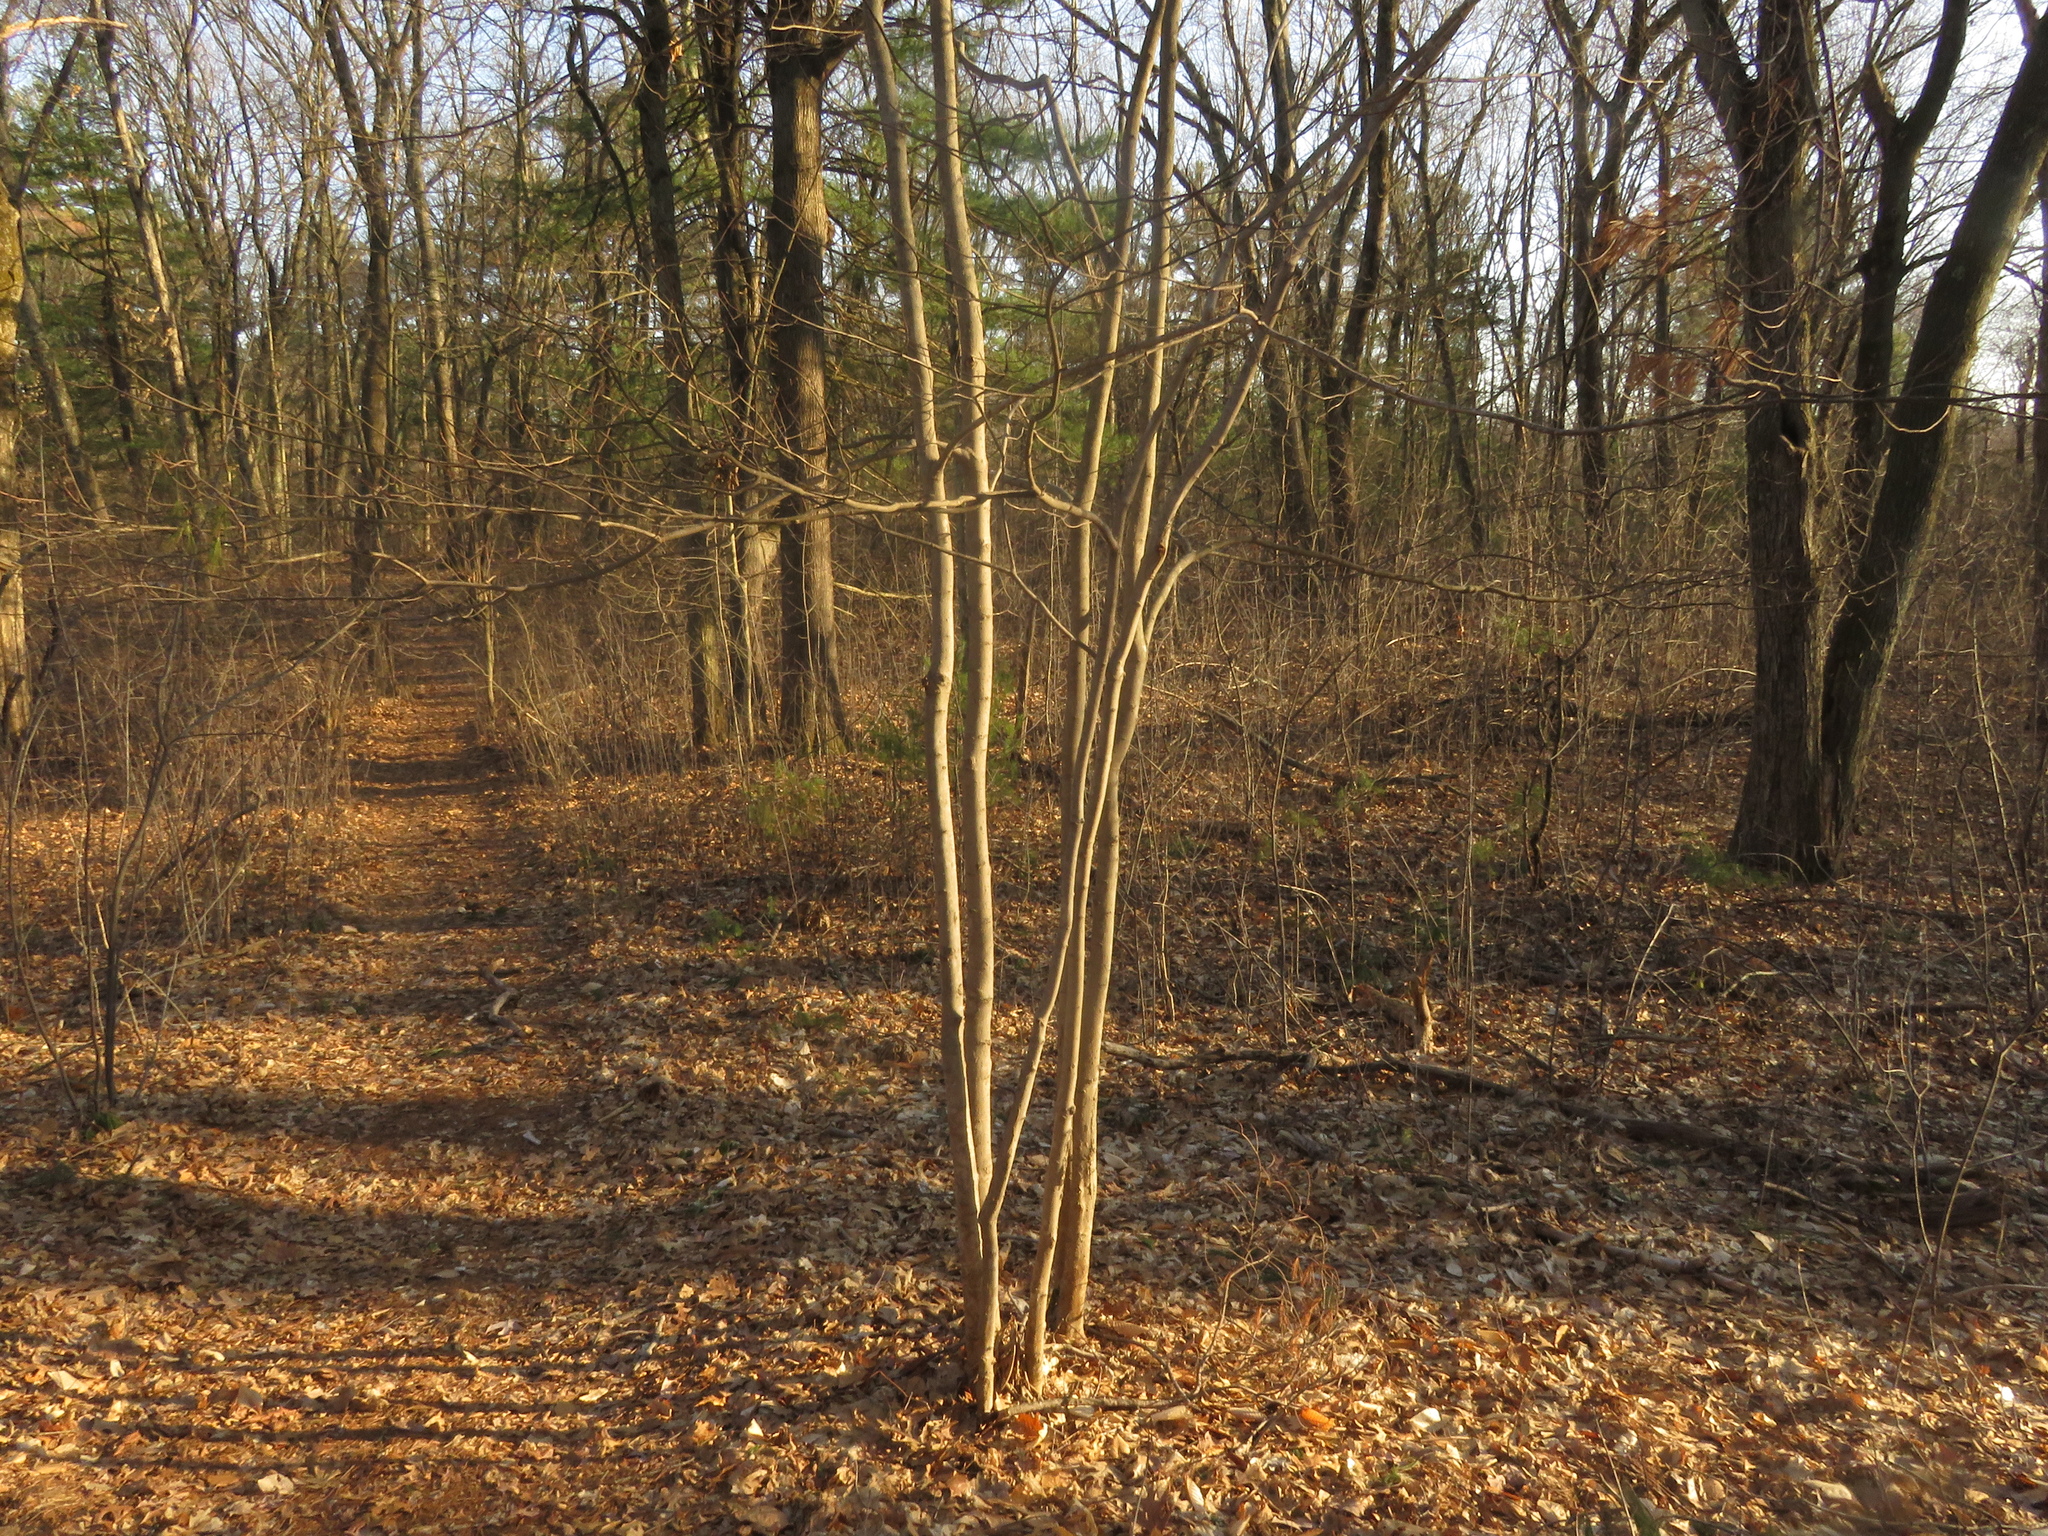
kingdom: Plantae
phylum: Tracheophyta
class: Magnoliopsida
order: Sapindales
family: Sapindaceae
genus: Acer
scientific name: Acer saccharum
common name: Sugar maple
